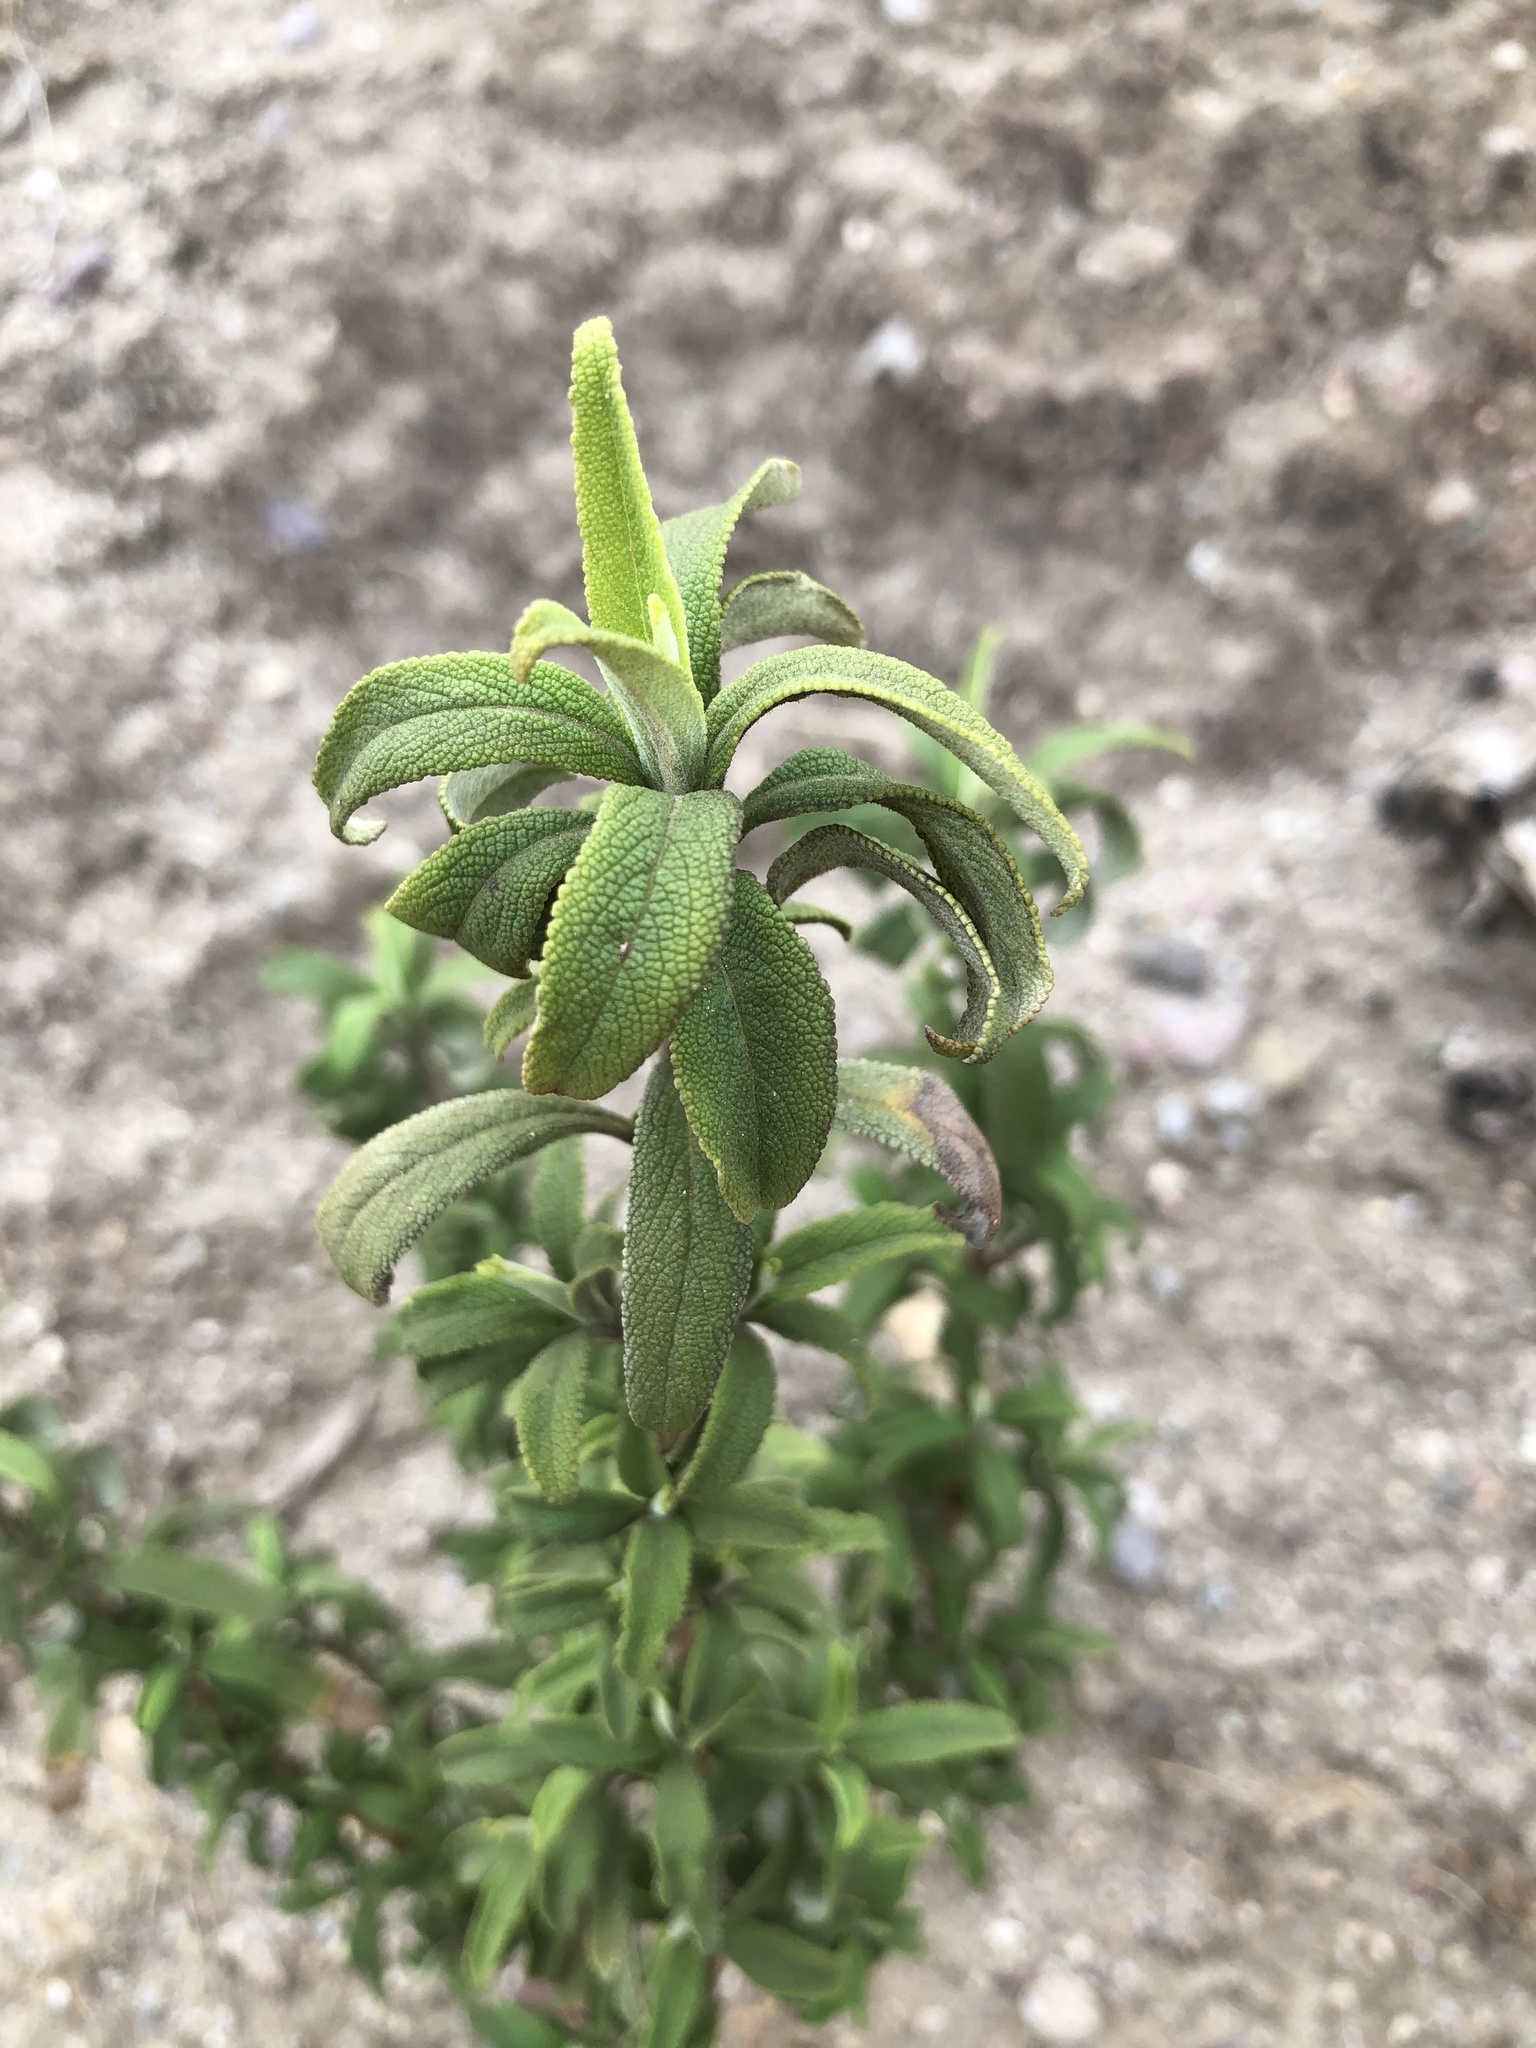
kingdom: Plantae
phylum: Tracheophyta
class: Magnoliopsida
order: Lamiales
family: Lamiaceae
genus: Salvia
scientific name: Salvia mellifera
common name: Black sage
